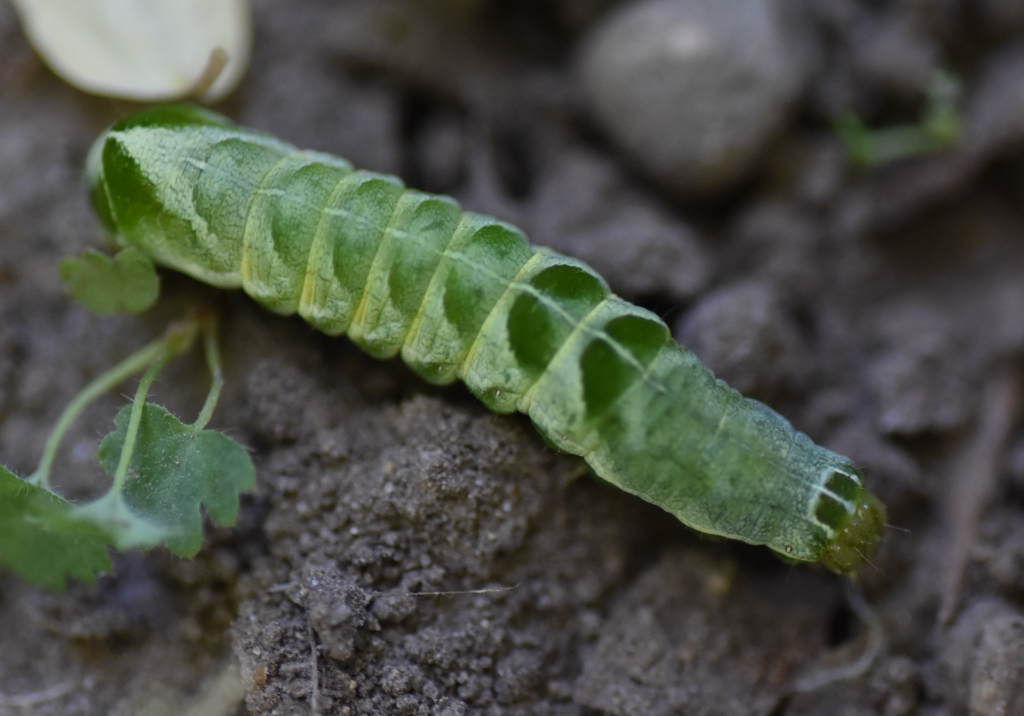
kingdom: Animalia
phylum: Arthropoda
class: Insecta
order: Lepidoptera
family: Noctuidae
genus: Melanchra
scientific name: Melanchra adjuncta
